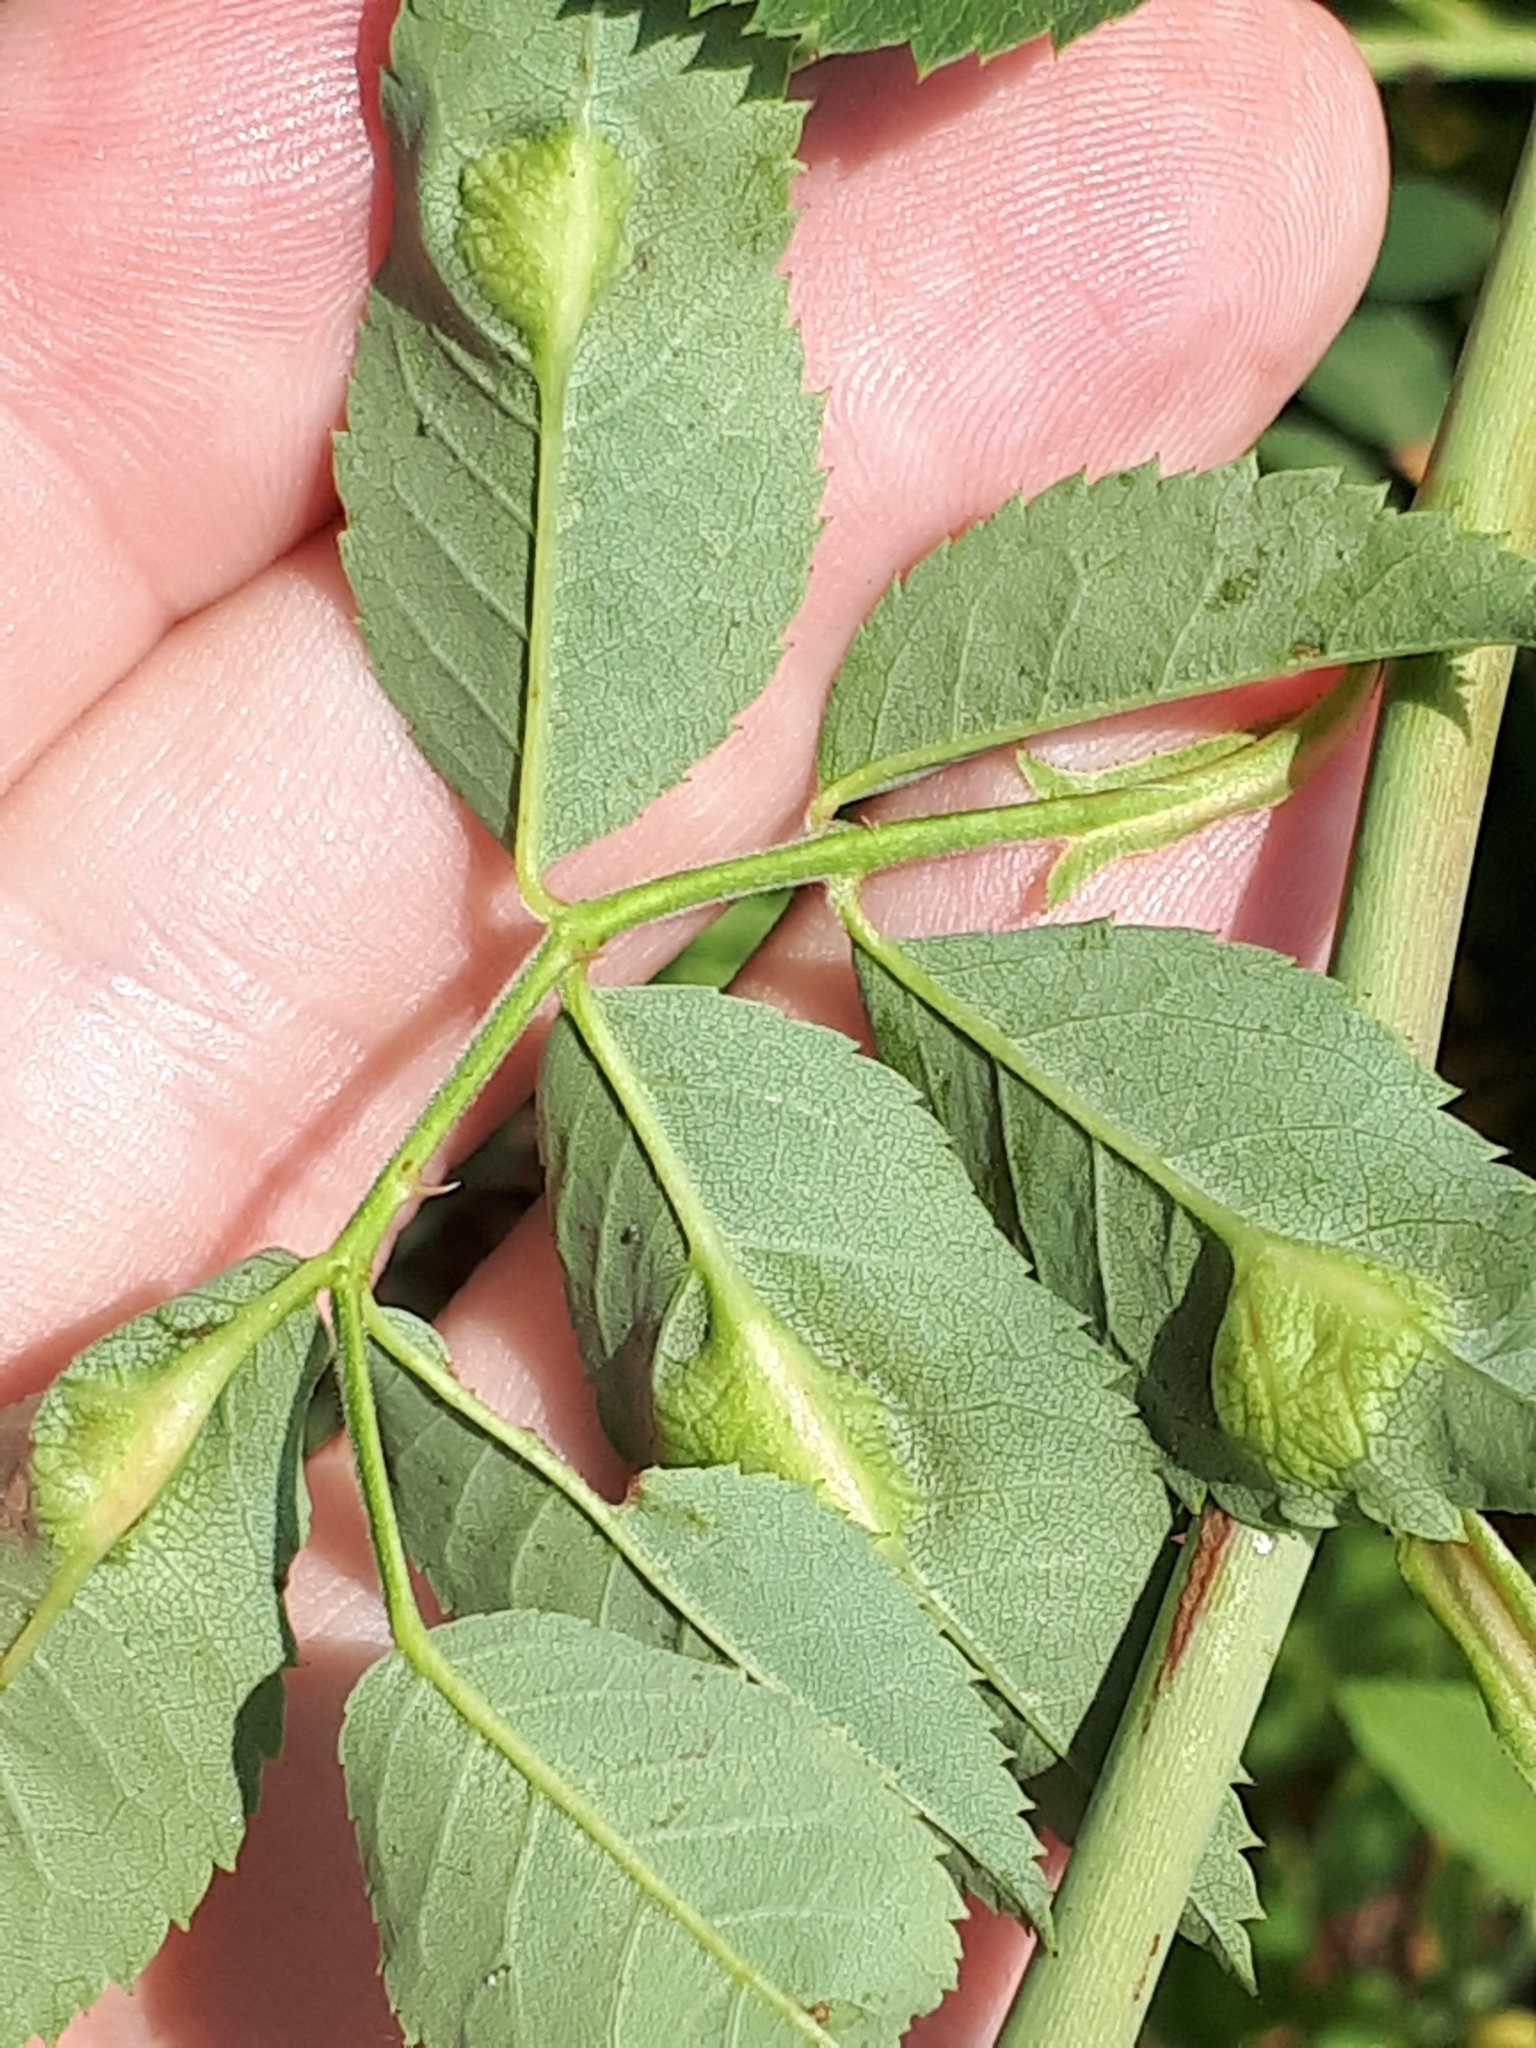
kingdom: Animalia
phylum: Arthropoda
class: Insecta
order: Hymenoptera
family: Cynipidae
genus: Diplolepis
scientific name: Diplolepis spinosissimae
